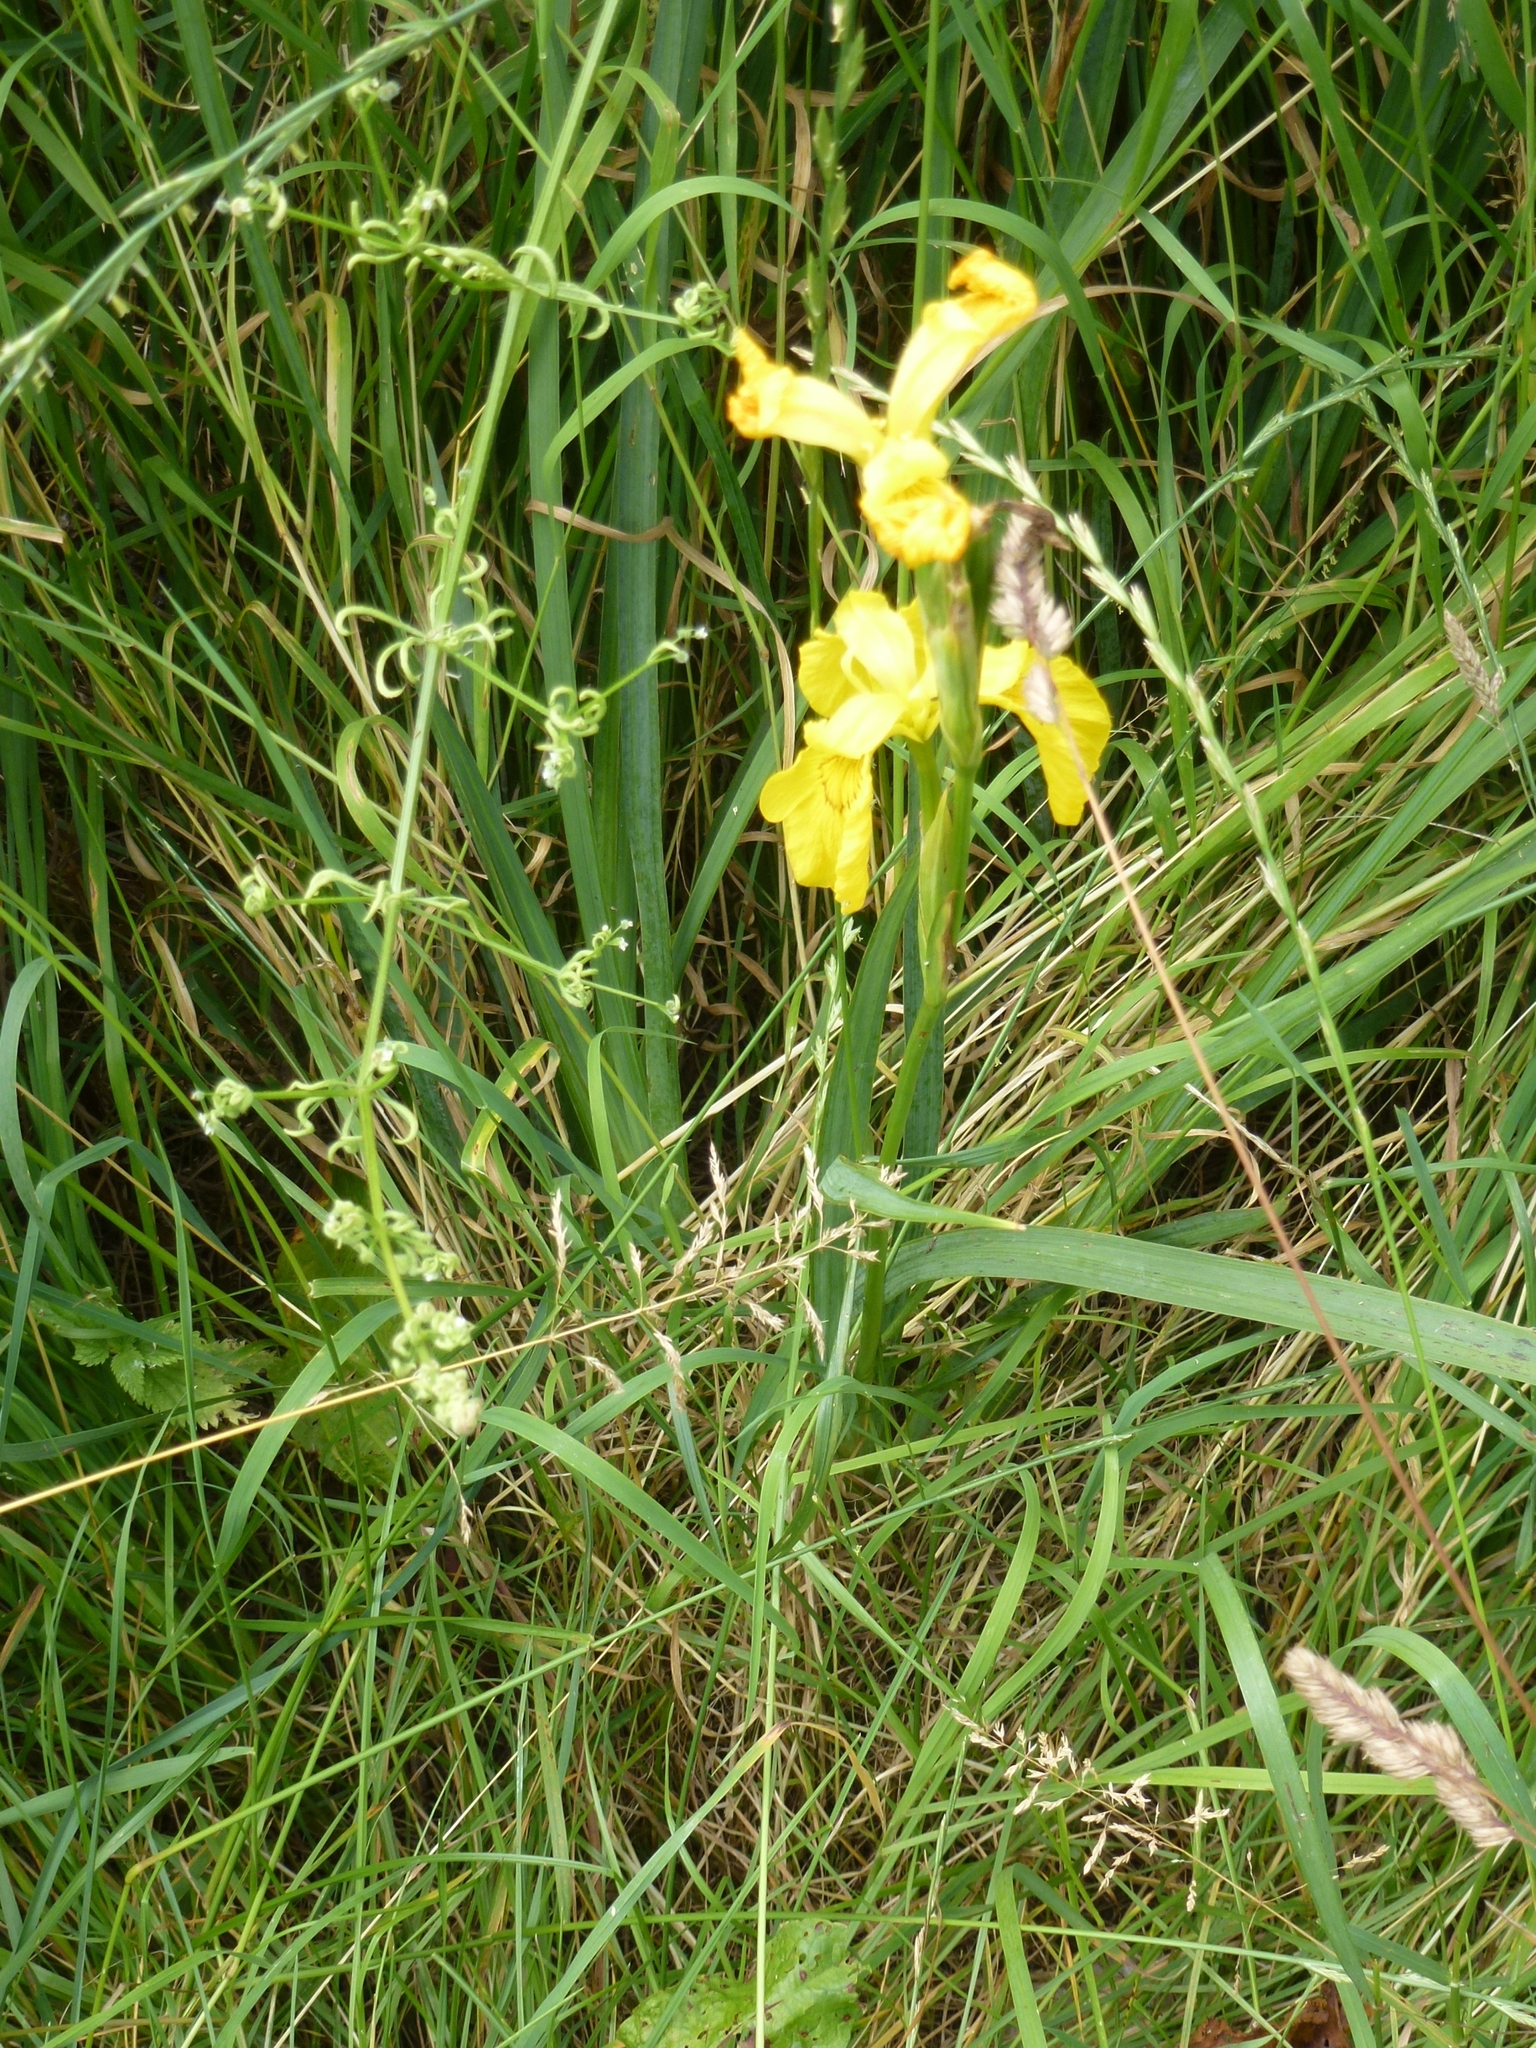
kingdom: Plantae
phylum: Tracheophyta
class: Liliopsida
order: Asparagales
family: Iridaceae
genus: Iris
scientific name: Iris pseudacorus
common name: Yellow flag
